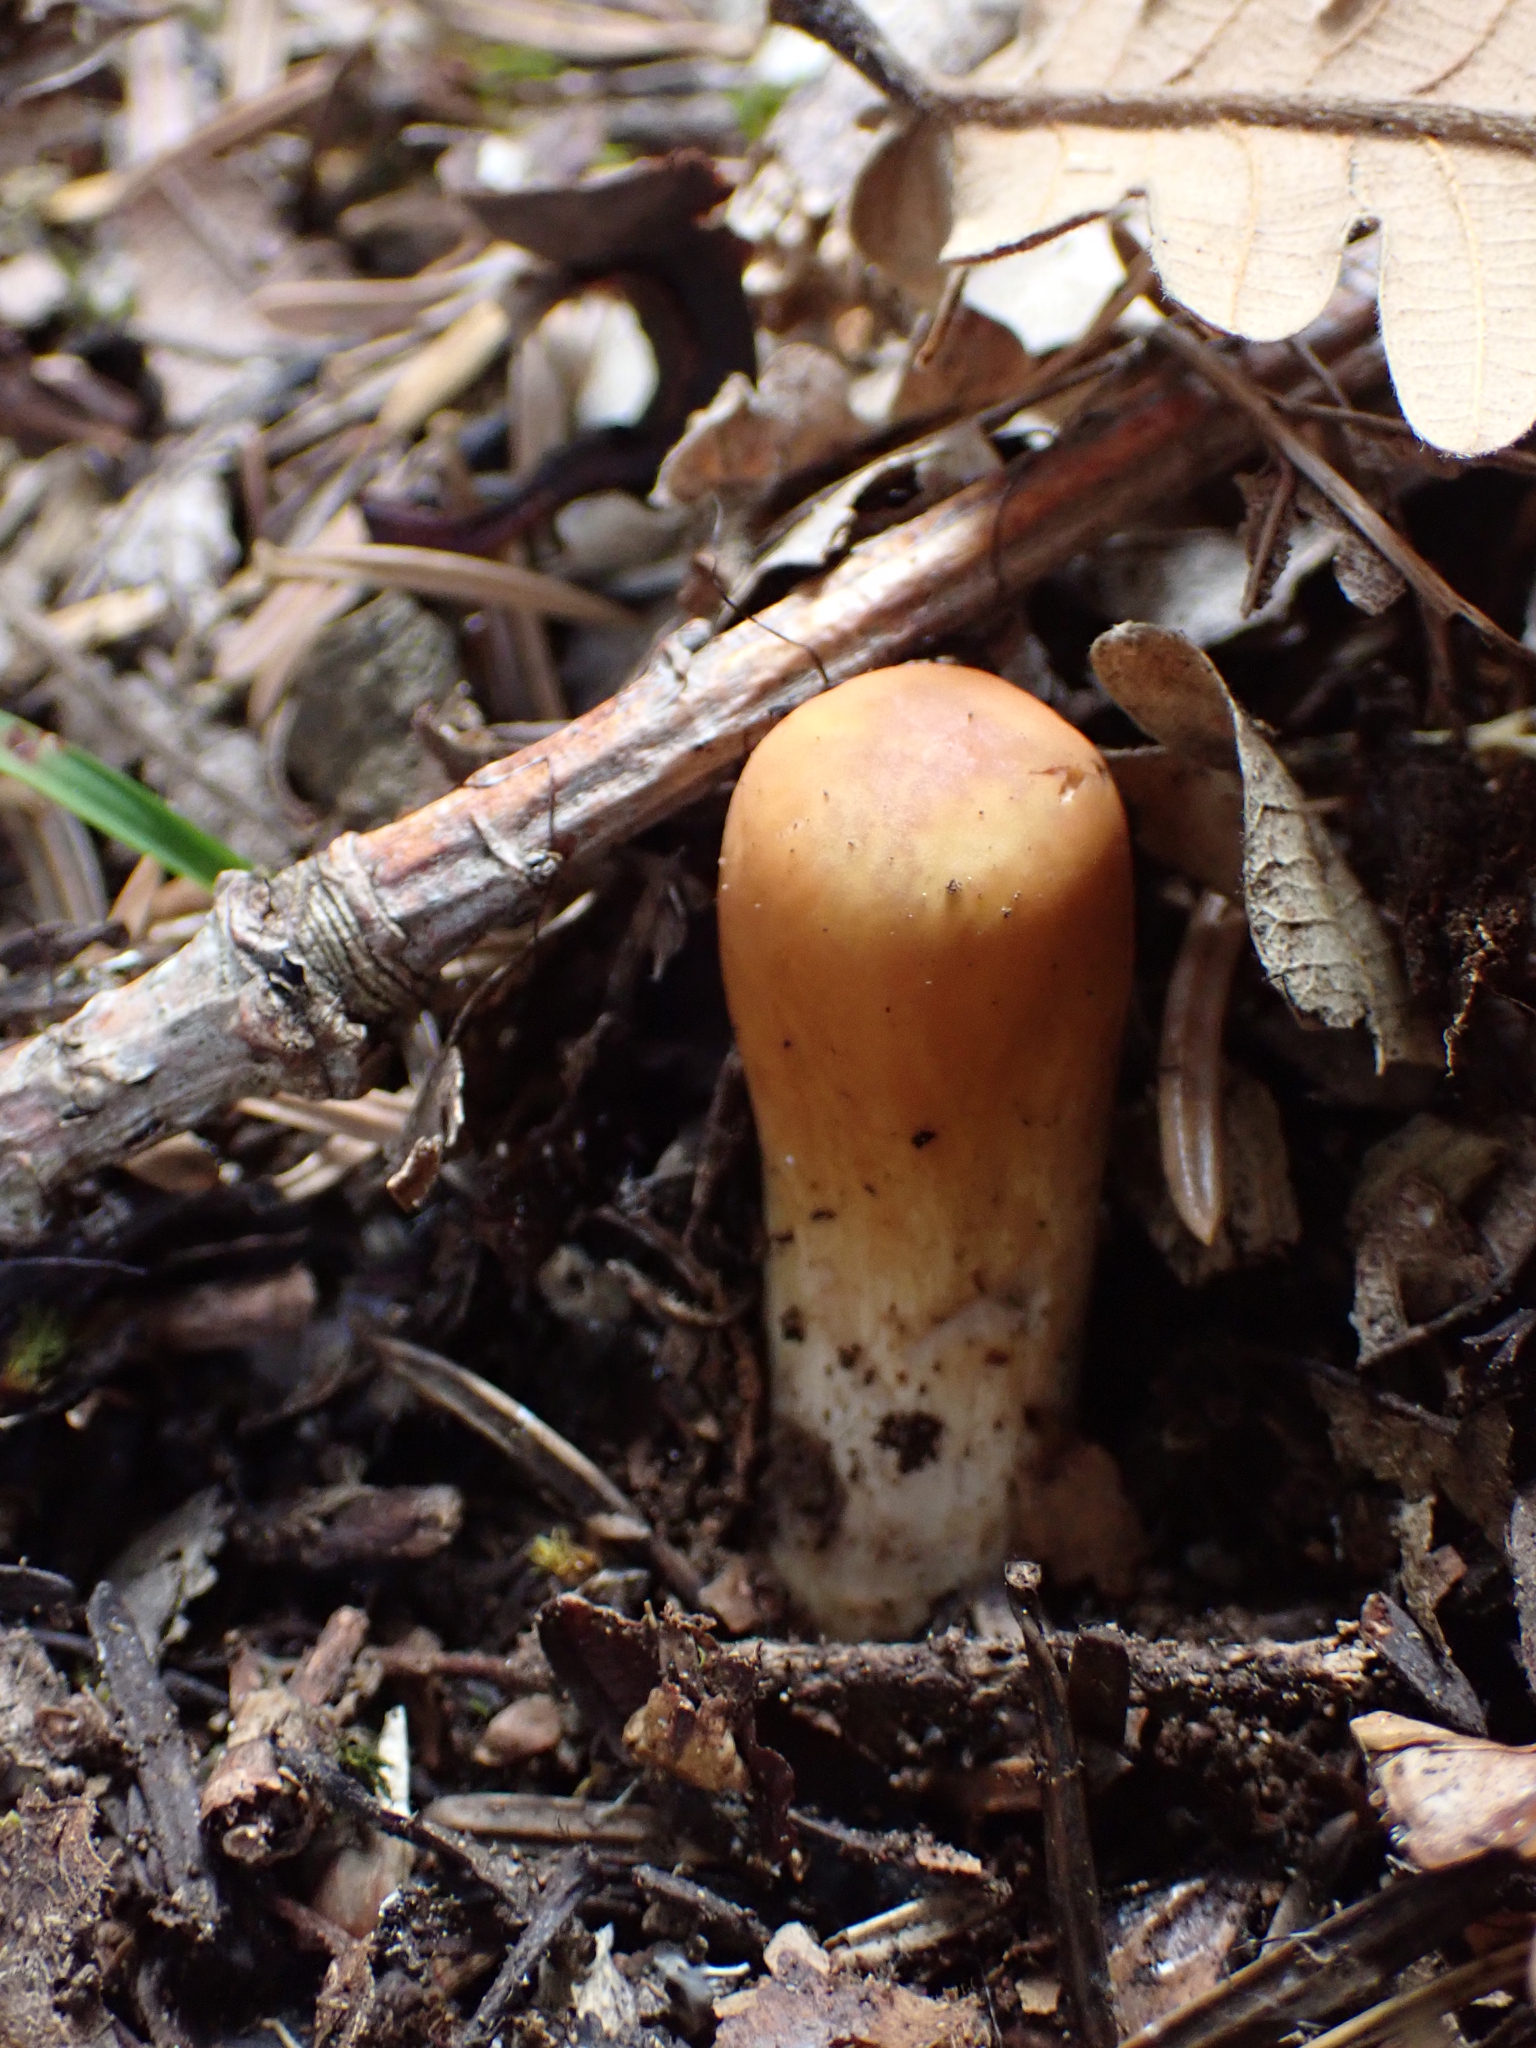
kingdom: Fungi
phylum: Basidiomycota
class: Agaricomycetes
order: Gomphales
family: Clavariadelphaceae
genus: Clavariadelphus
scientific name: Clavariadelphus truncatus
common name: Truncated club
